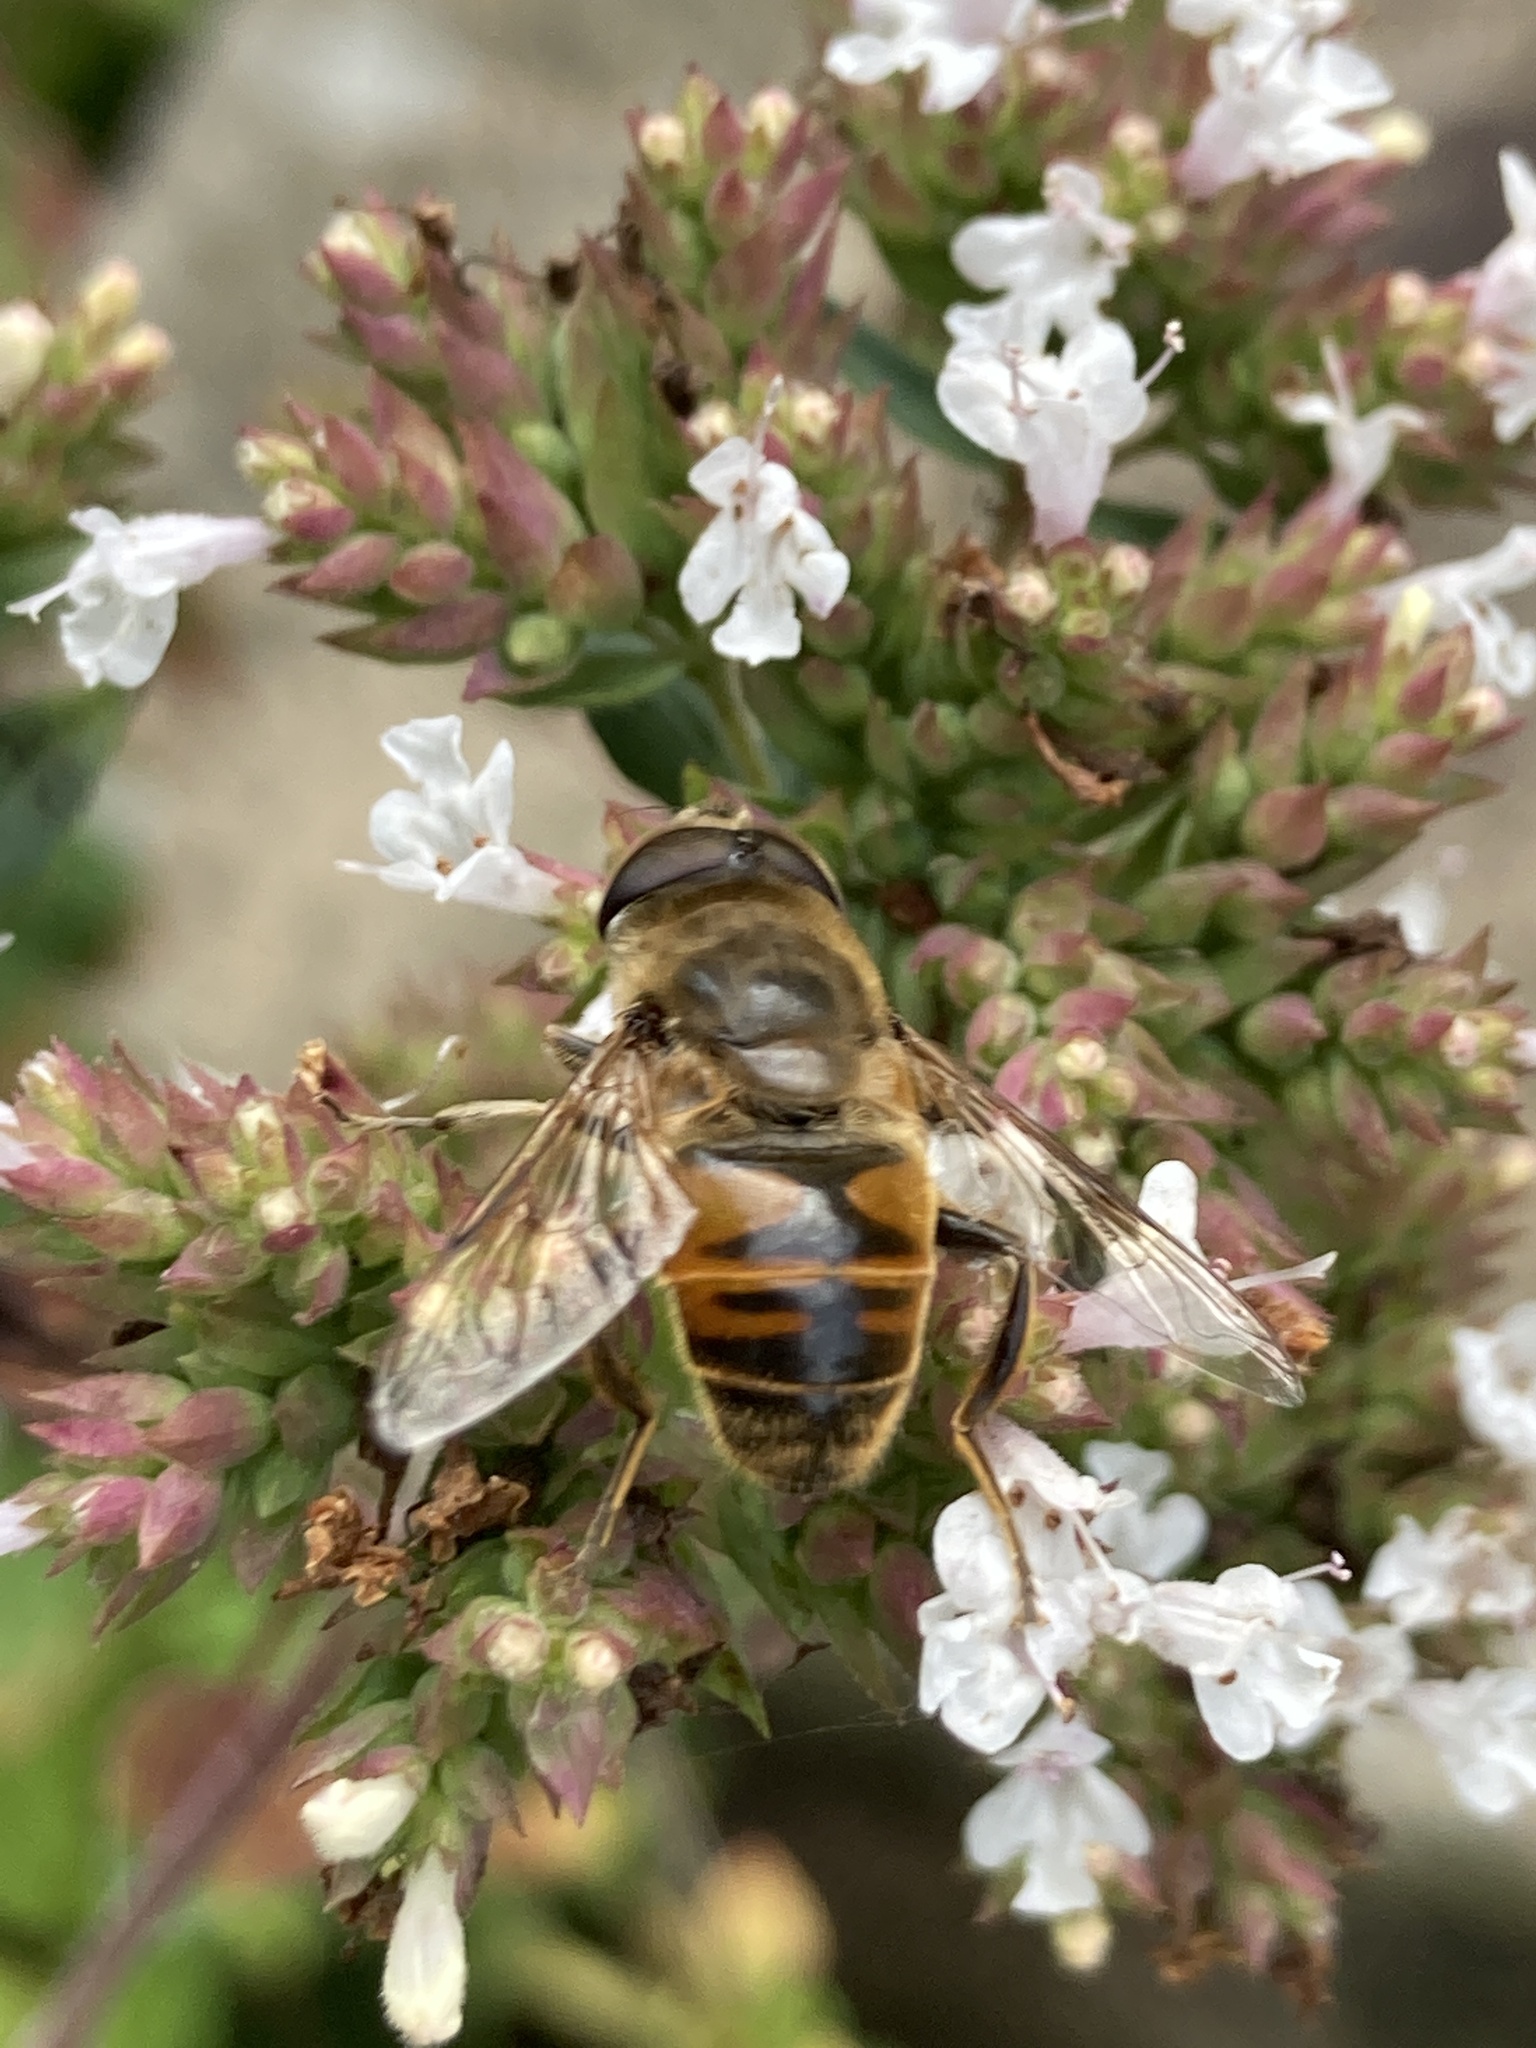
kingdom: Animalia
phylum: Arthropoda
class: Insecta
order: Diptera
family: Syrphidae
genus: Eristalis
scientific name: Eristalis tenax
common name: Drone fly
